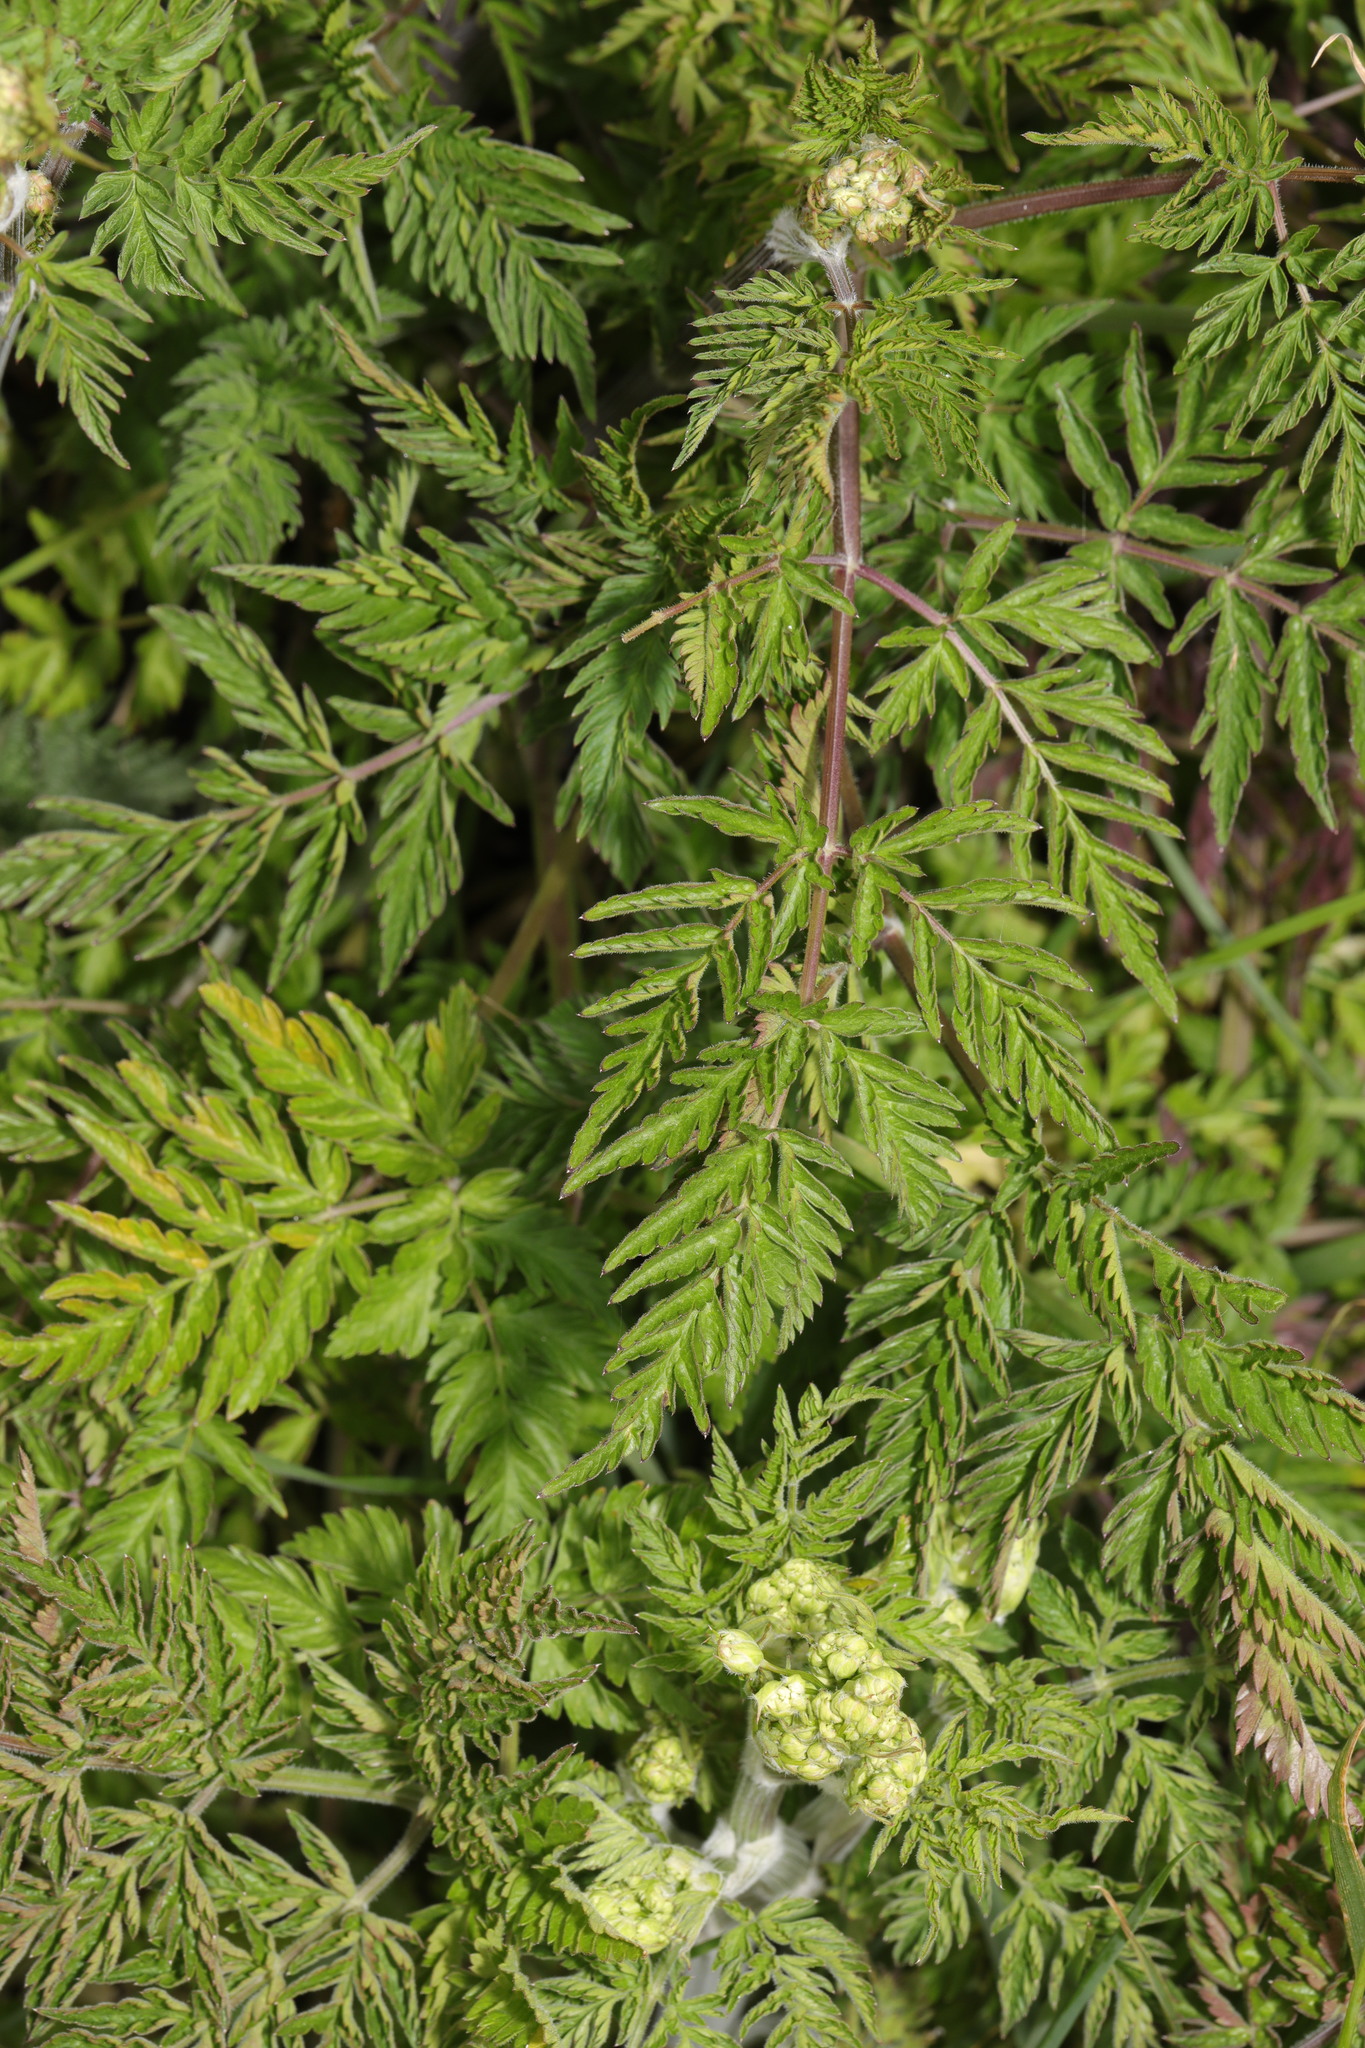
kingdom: Plantae
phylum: Tracheophyta
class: Magnoliopsida
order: Apiales
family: Apiaceae
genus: Anthriscus
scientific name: Anthriscus sylvestris
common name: Cow parsley
